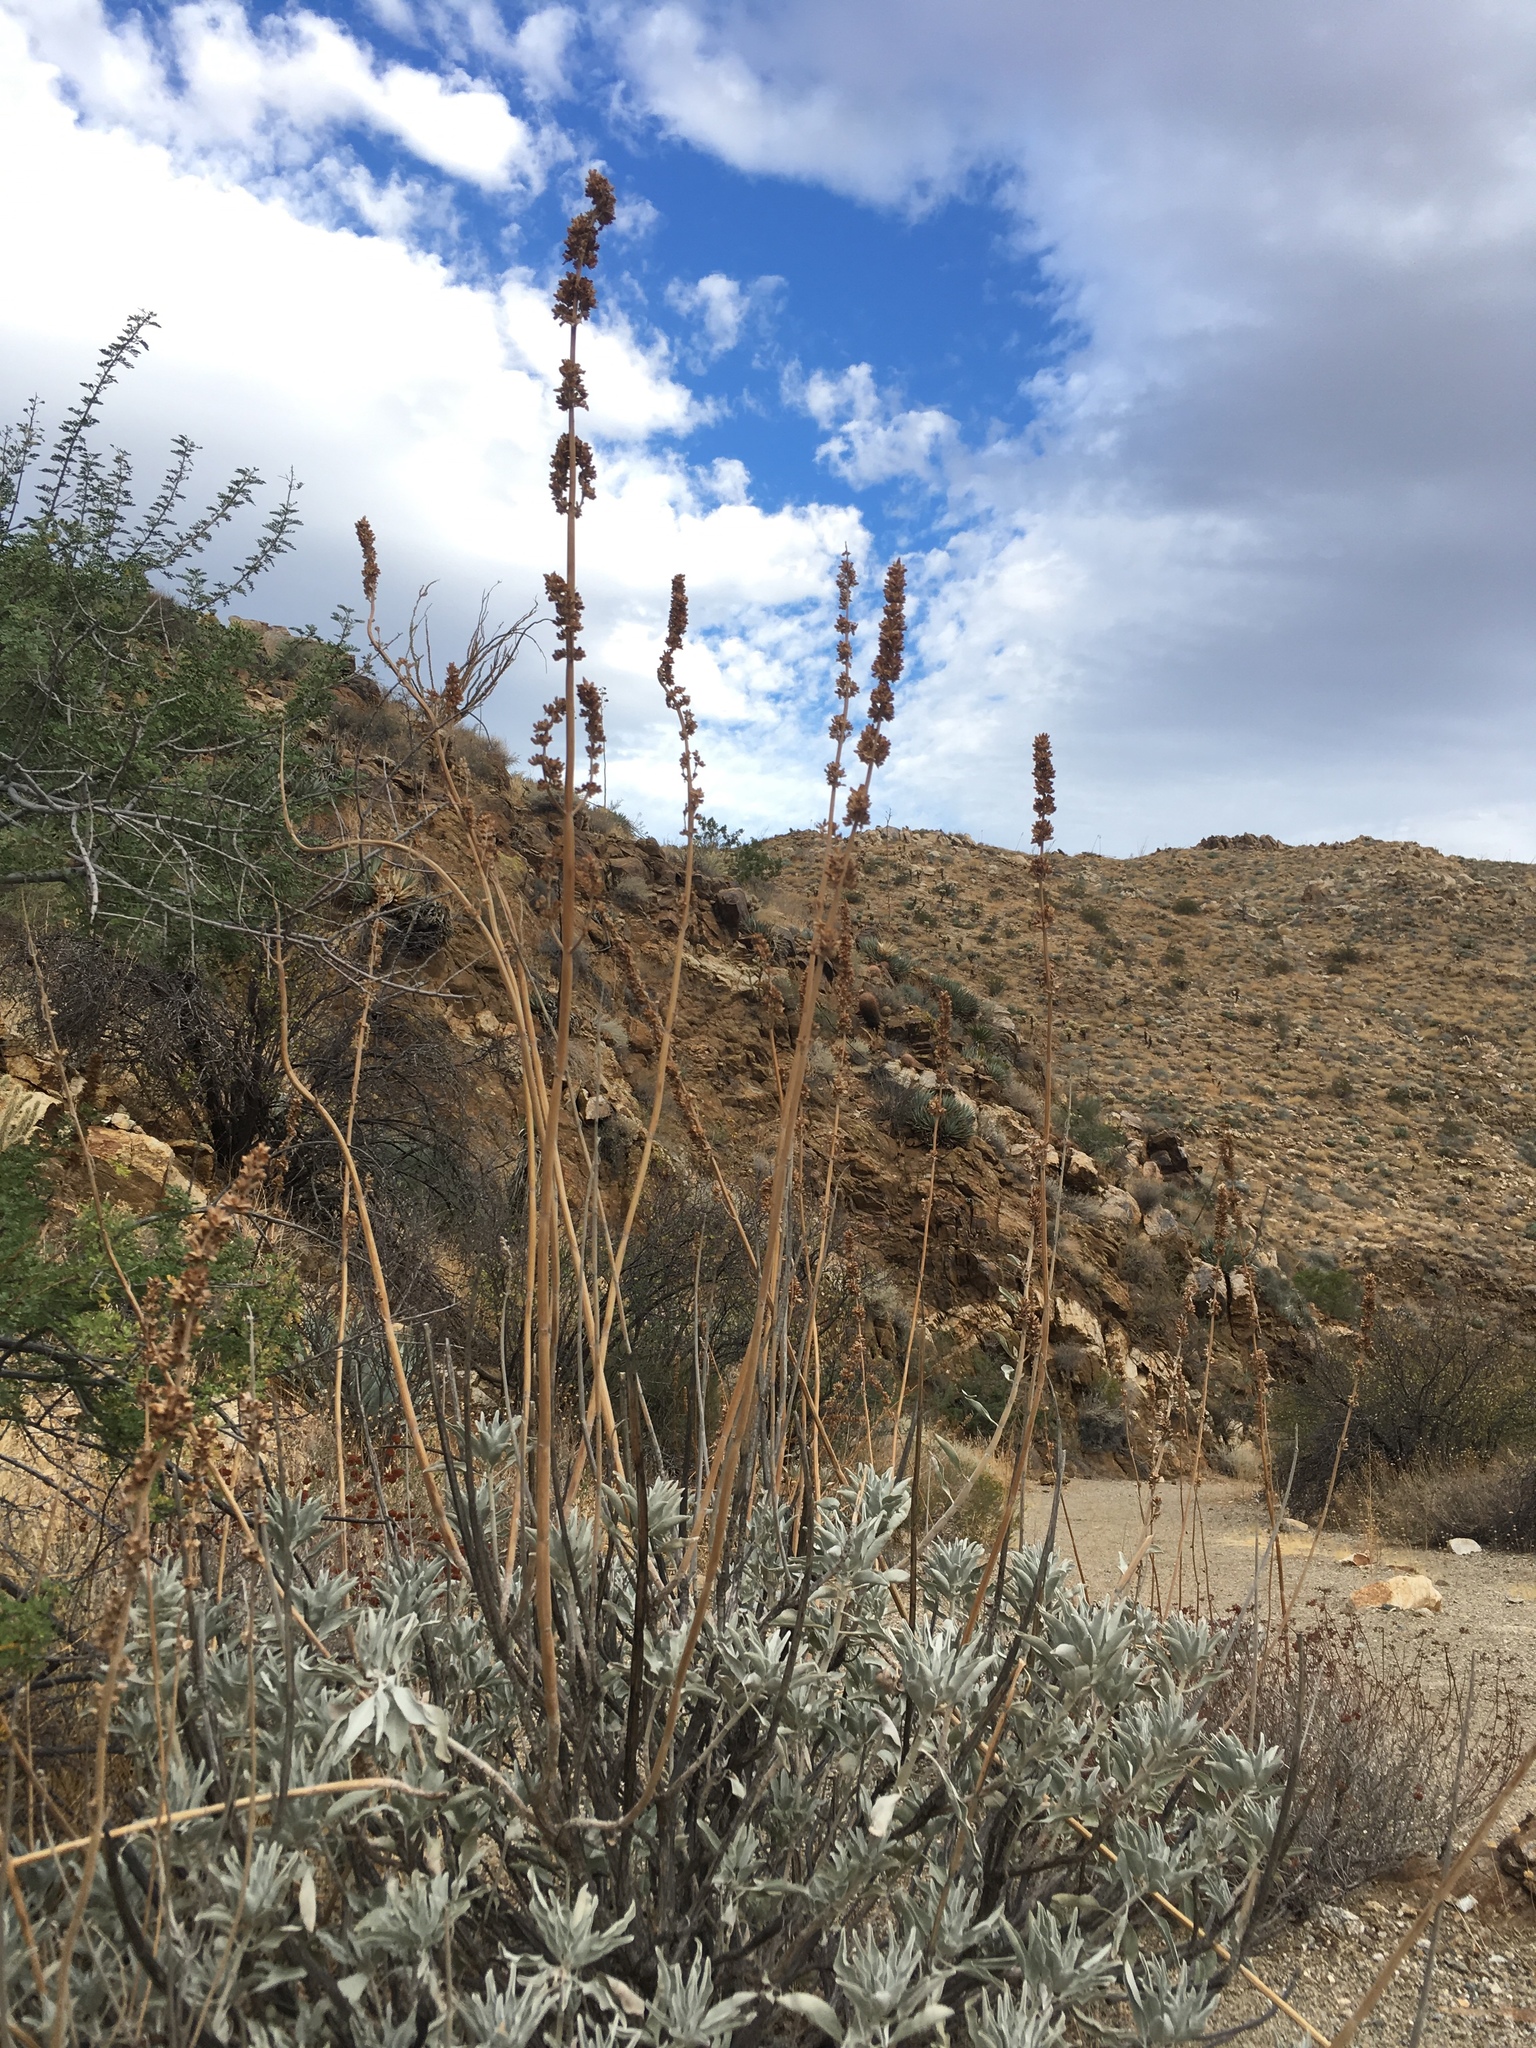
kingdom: Plantae
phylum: Tracheophyta
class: Magnoliopsida
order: Lamiales
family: Lamiaceae
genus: Salvia
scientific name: Salvia apiana
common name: White sage
